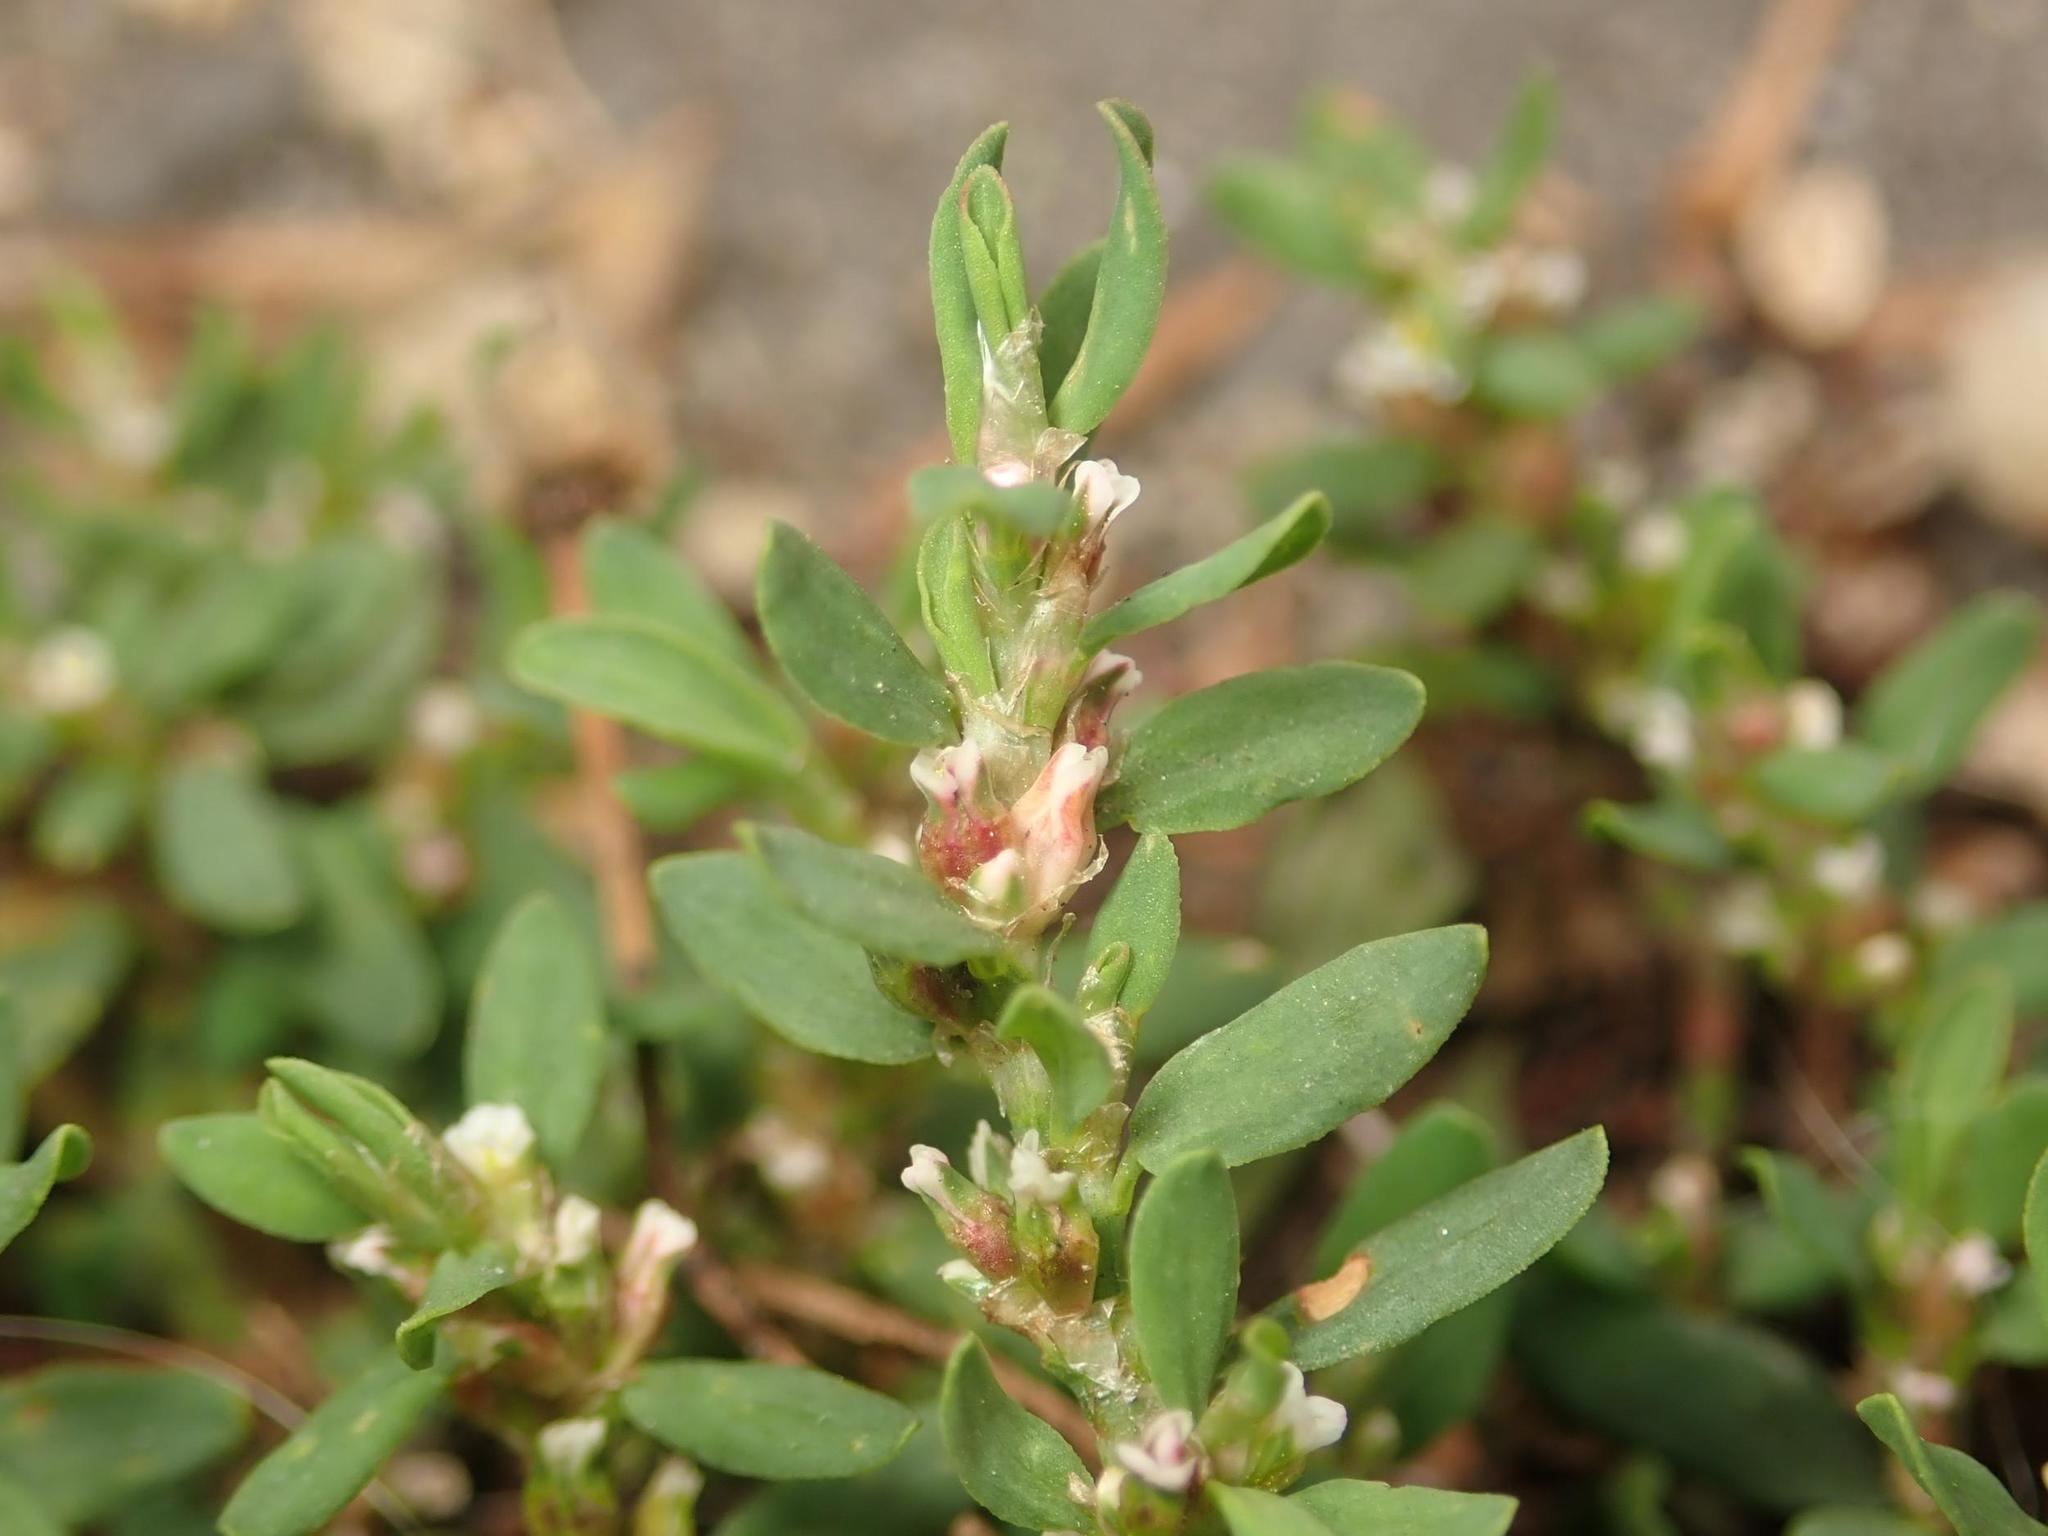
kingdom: Plantae
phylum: Tracheophyta
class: Magnoliopsida
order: Caryophyllales
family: Polygonaceae
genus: Polygonum
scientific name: Polygonum aviculare
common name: Prostrate knotweed
